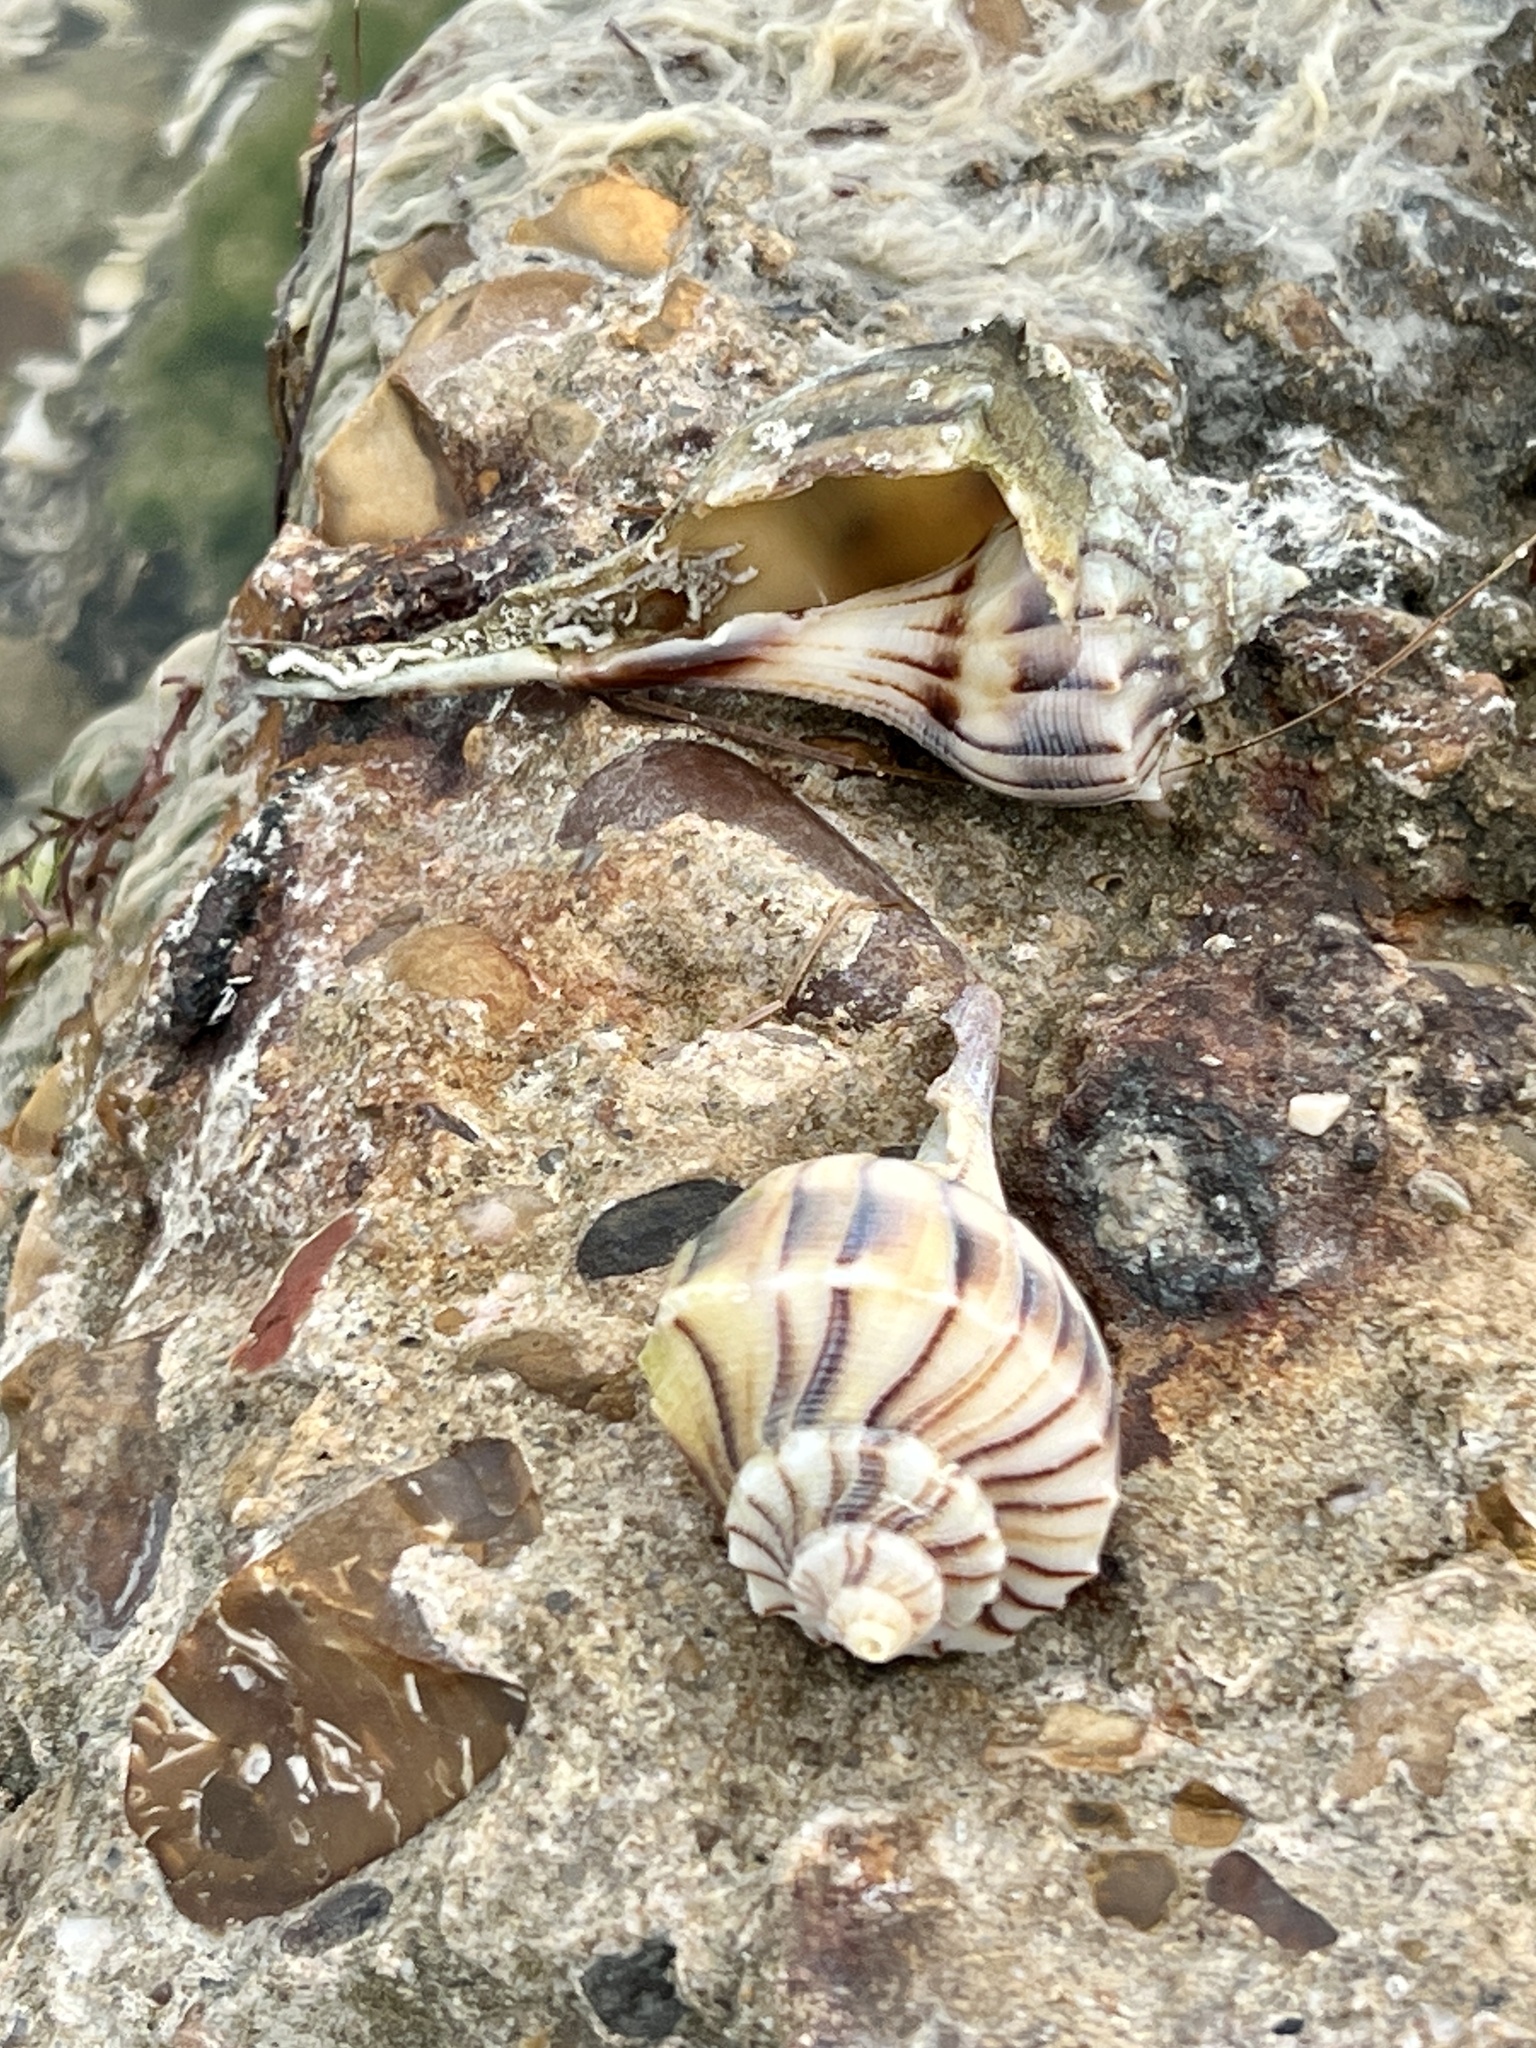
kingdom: Animalia
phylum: Mollusca
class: Gastropoda
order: Neogastropoda
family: Busyconidae
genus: Sinistrofulgur
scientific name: Sinistrofulgur pulleyi
